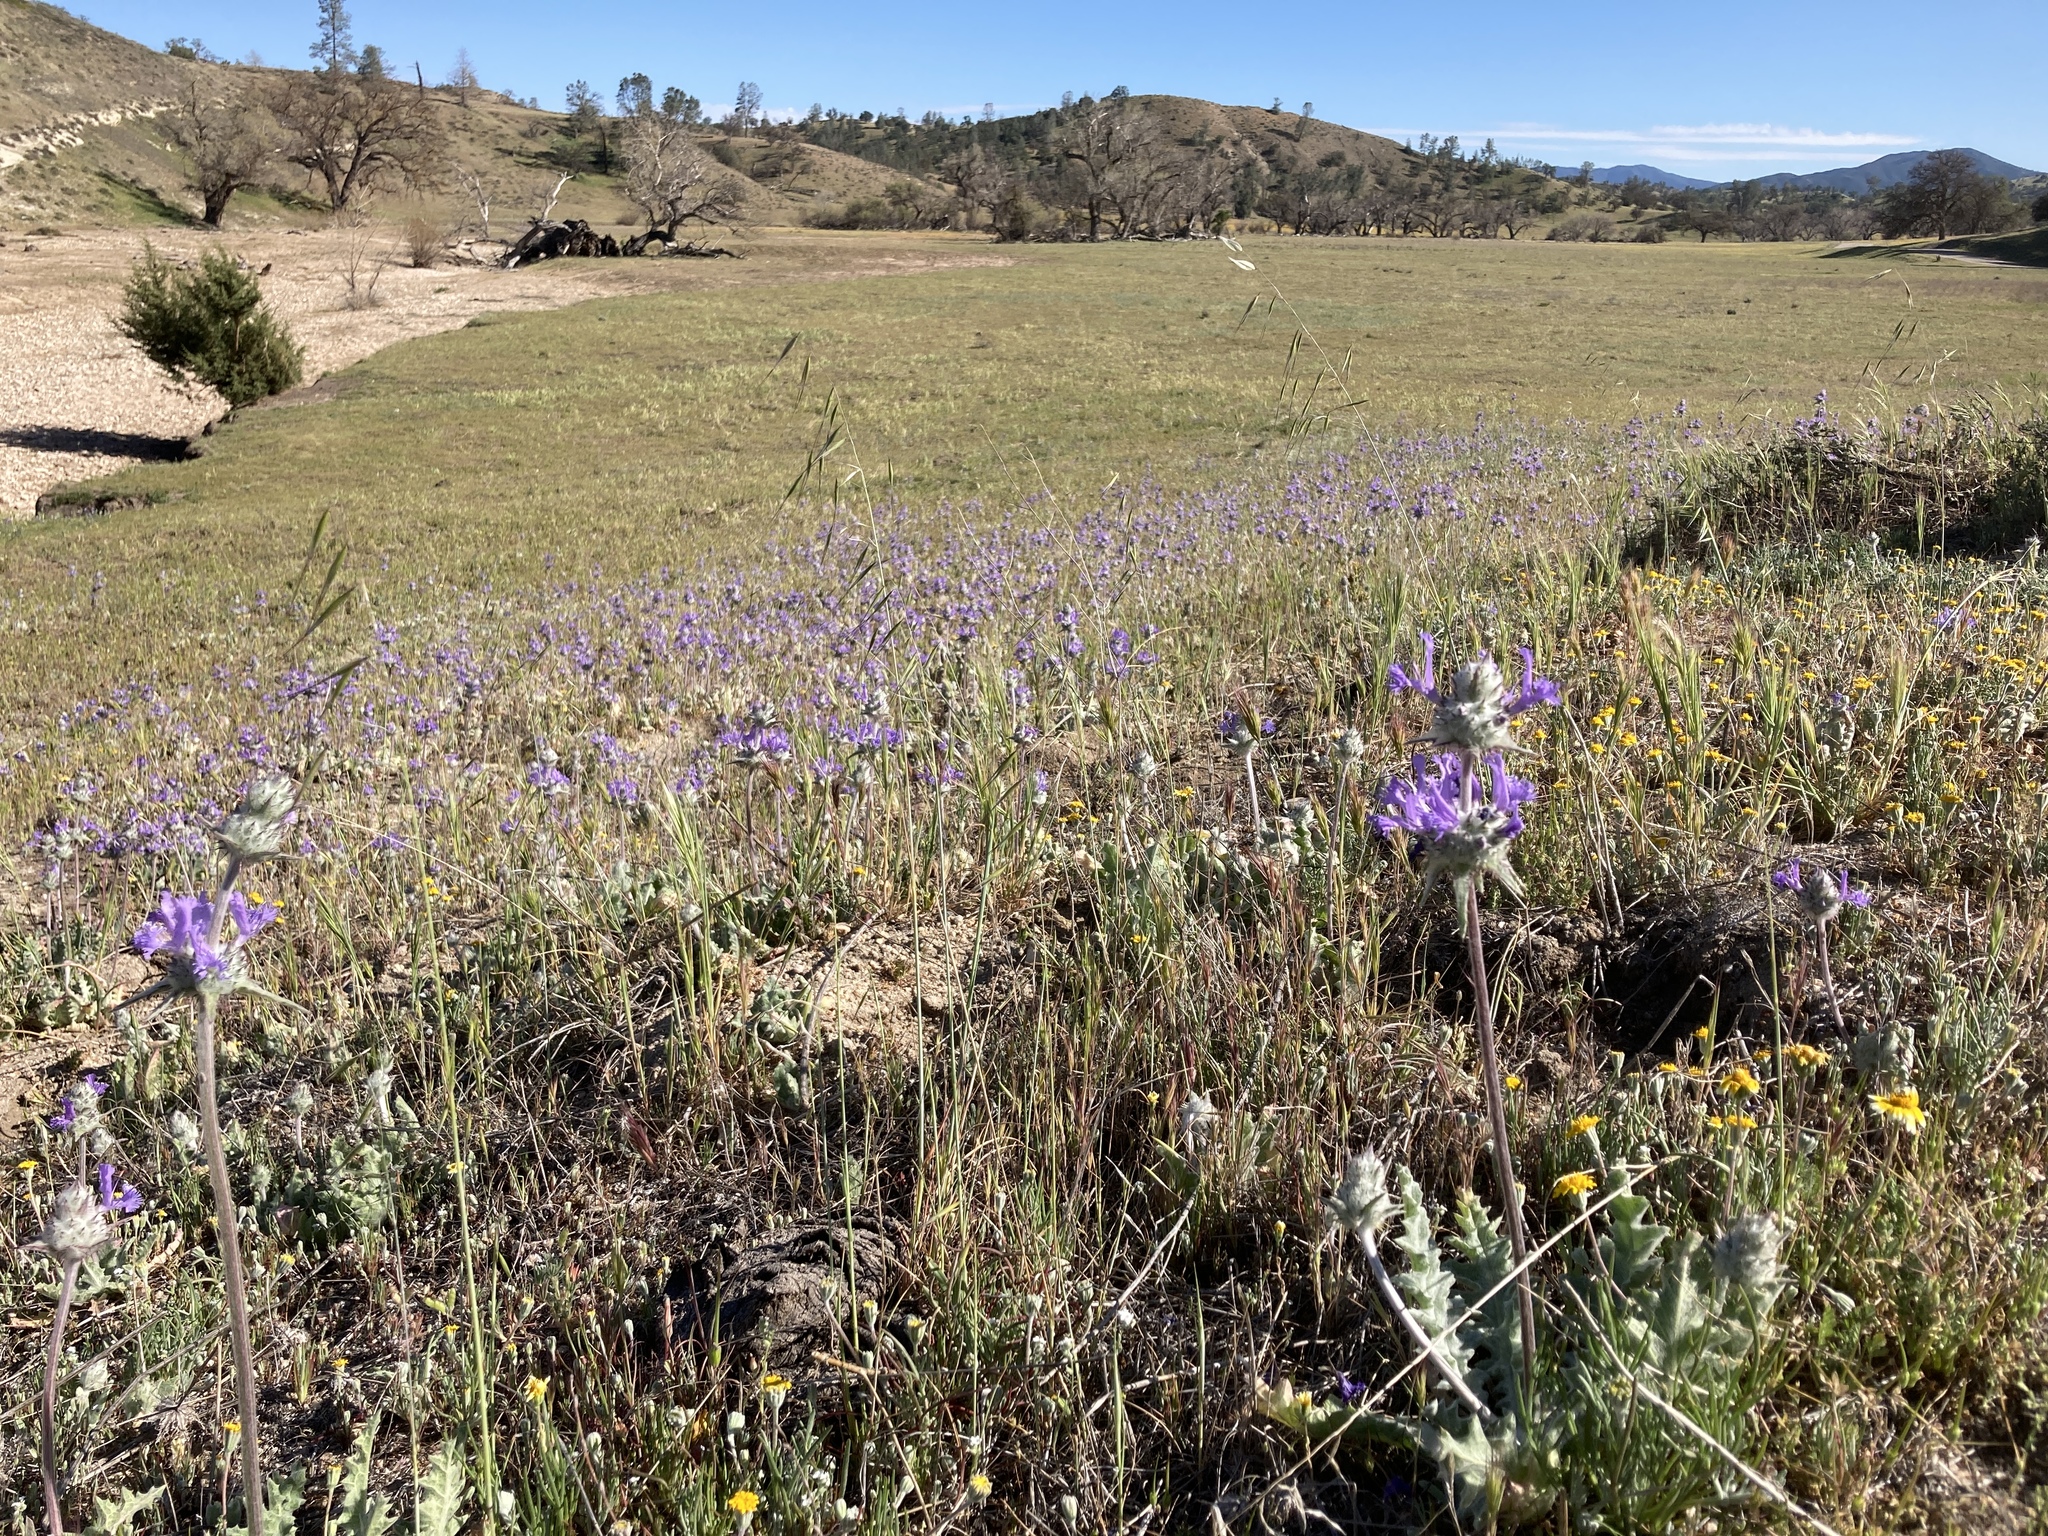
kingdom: Plantae
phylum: Tracheophyta
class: Magnoliopsida
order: Lamiales
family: Lamiaceae
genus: Salvia
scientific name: Salvia carduacea
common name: Thistle sage
